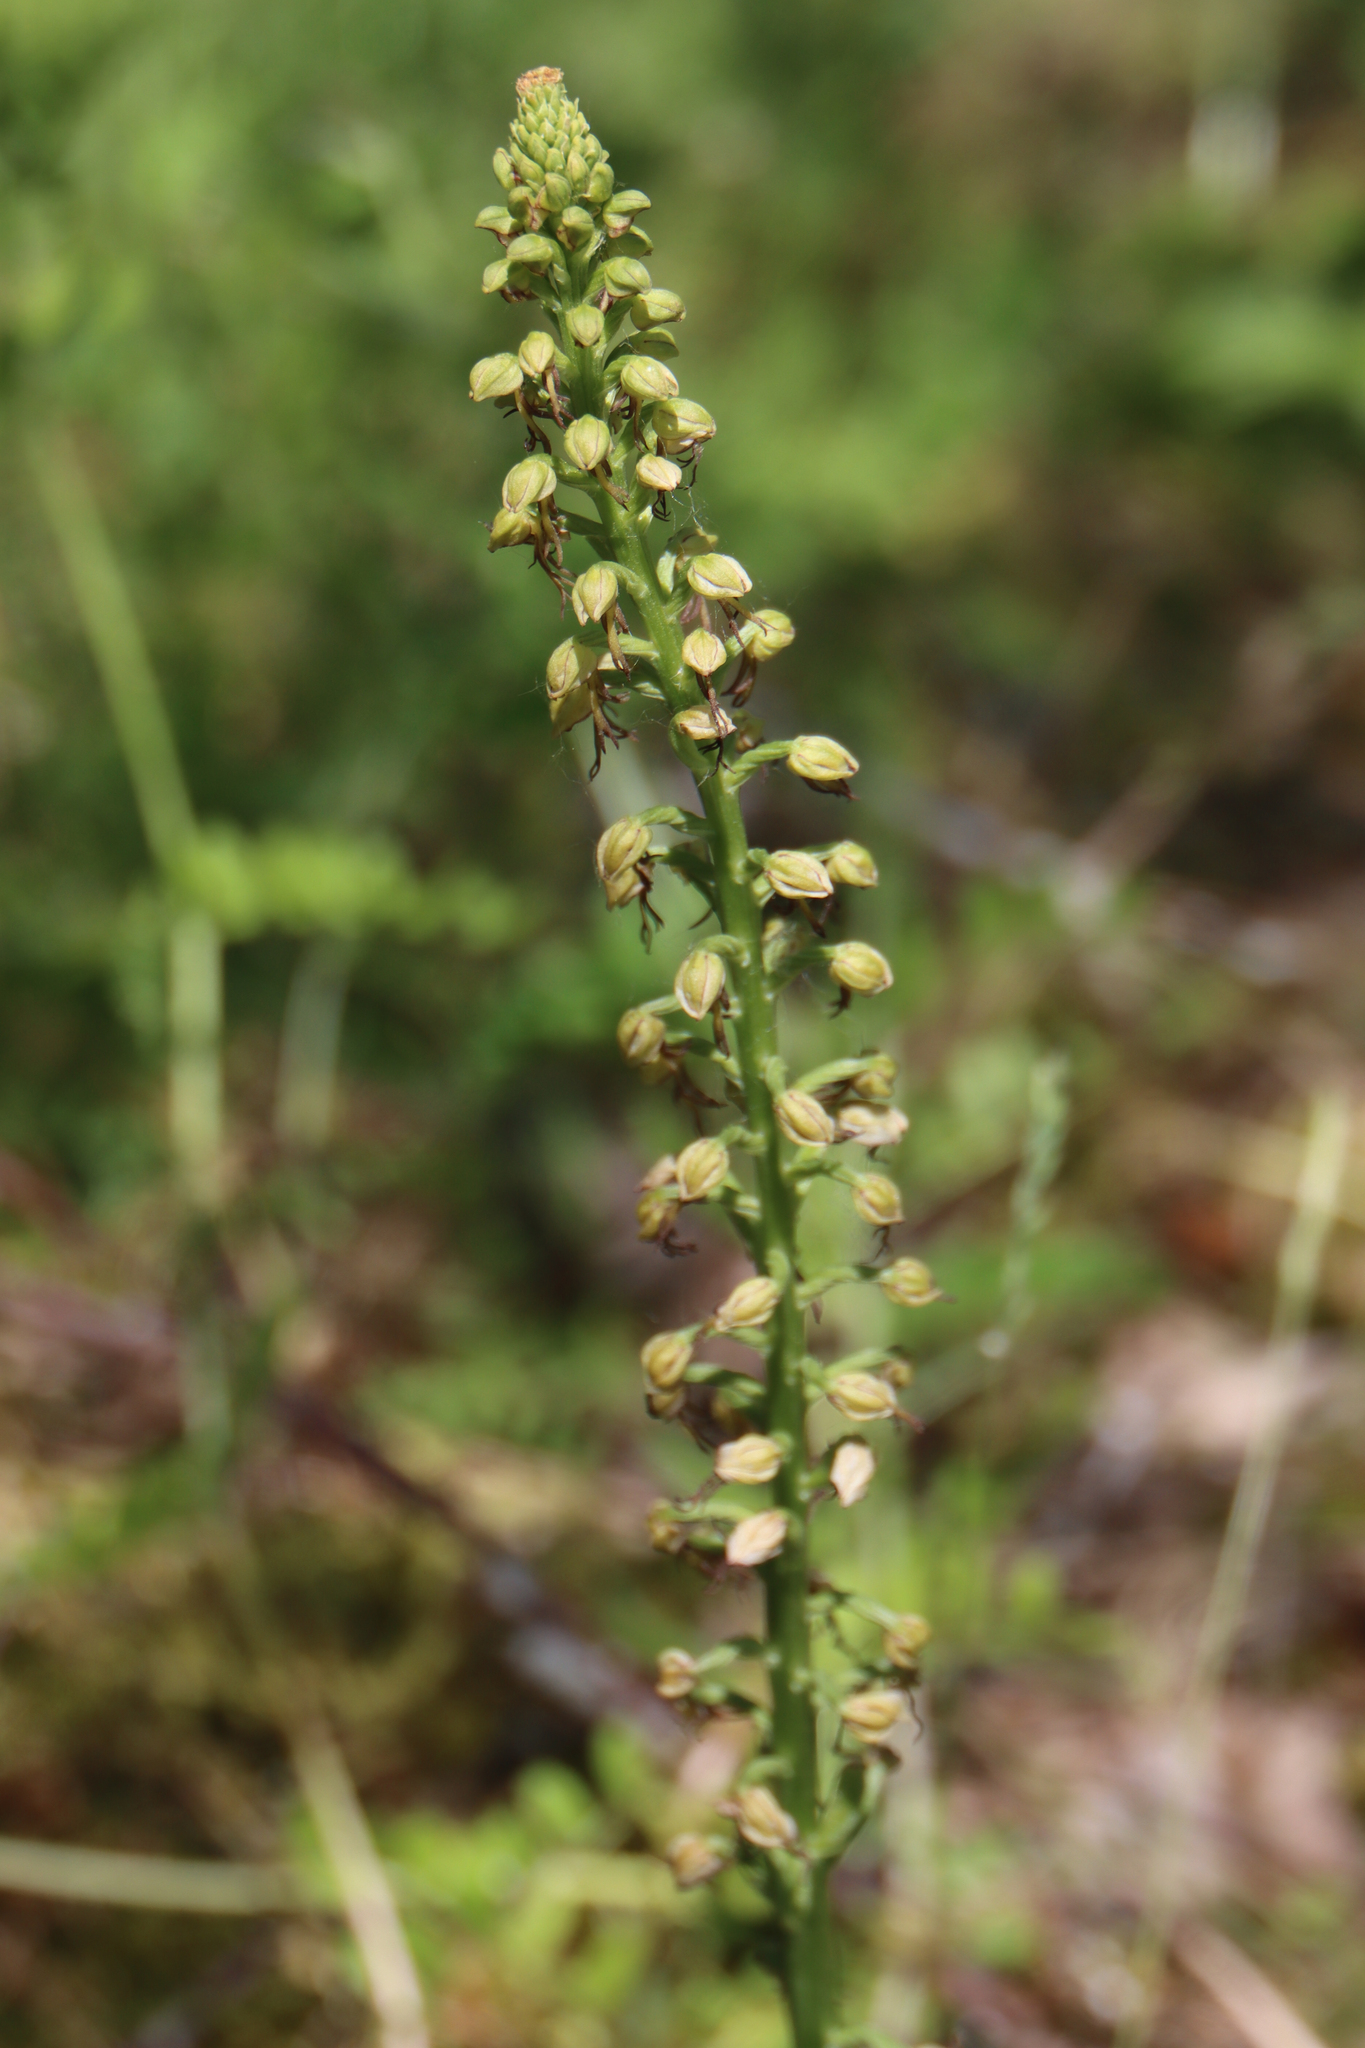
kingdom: Plantae
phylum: Tracheophyta
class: Liliopsida
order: Asparagales
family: Orchidaceae
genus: Orchis
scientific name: Orchis anthropophora
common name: Man orchid
